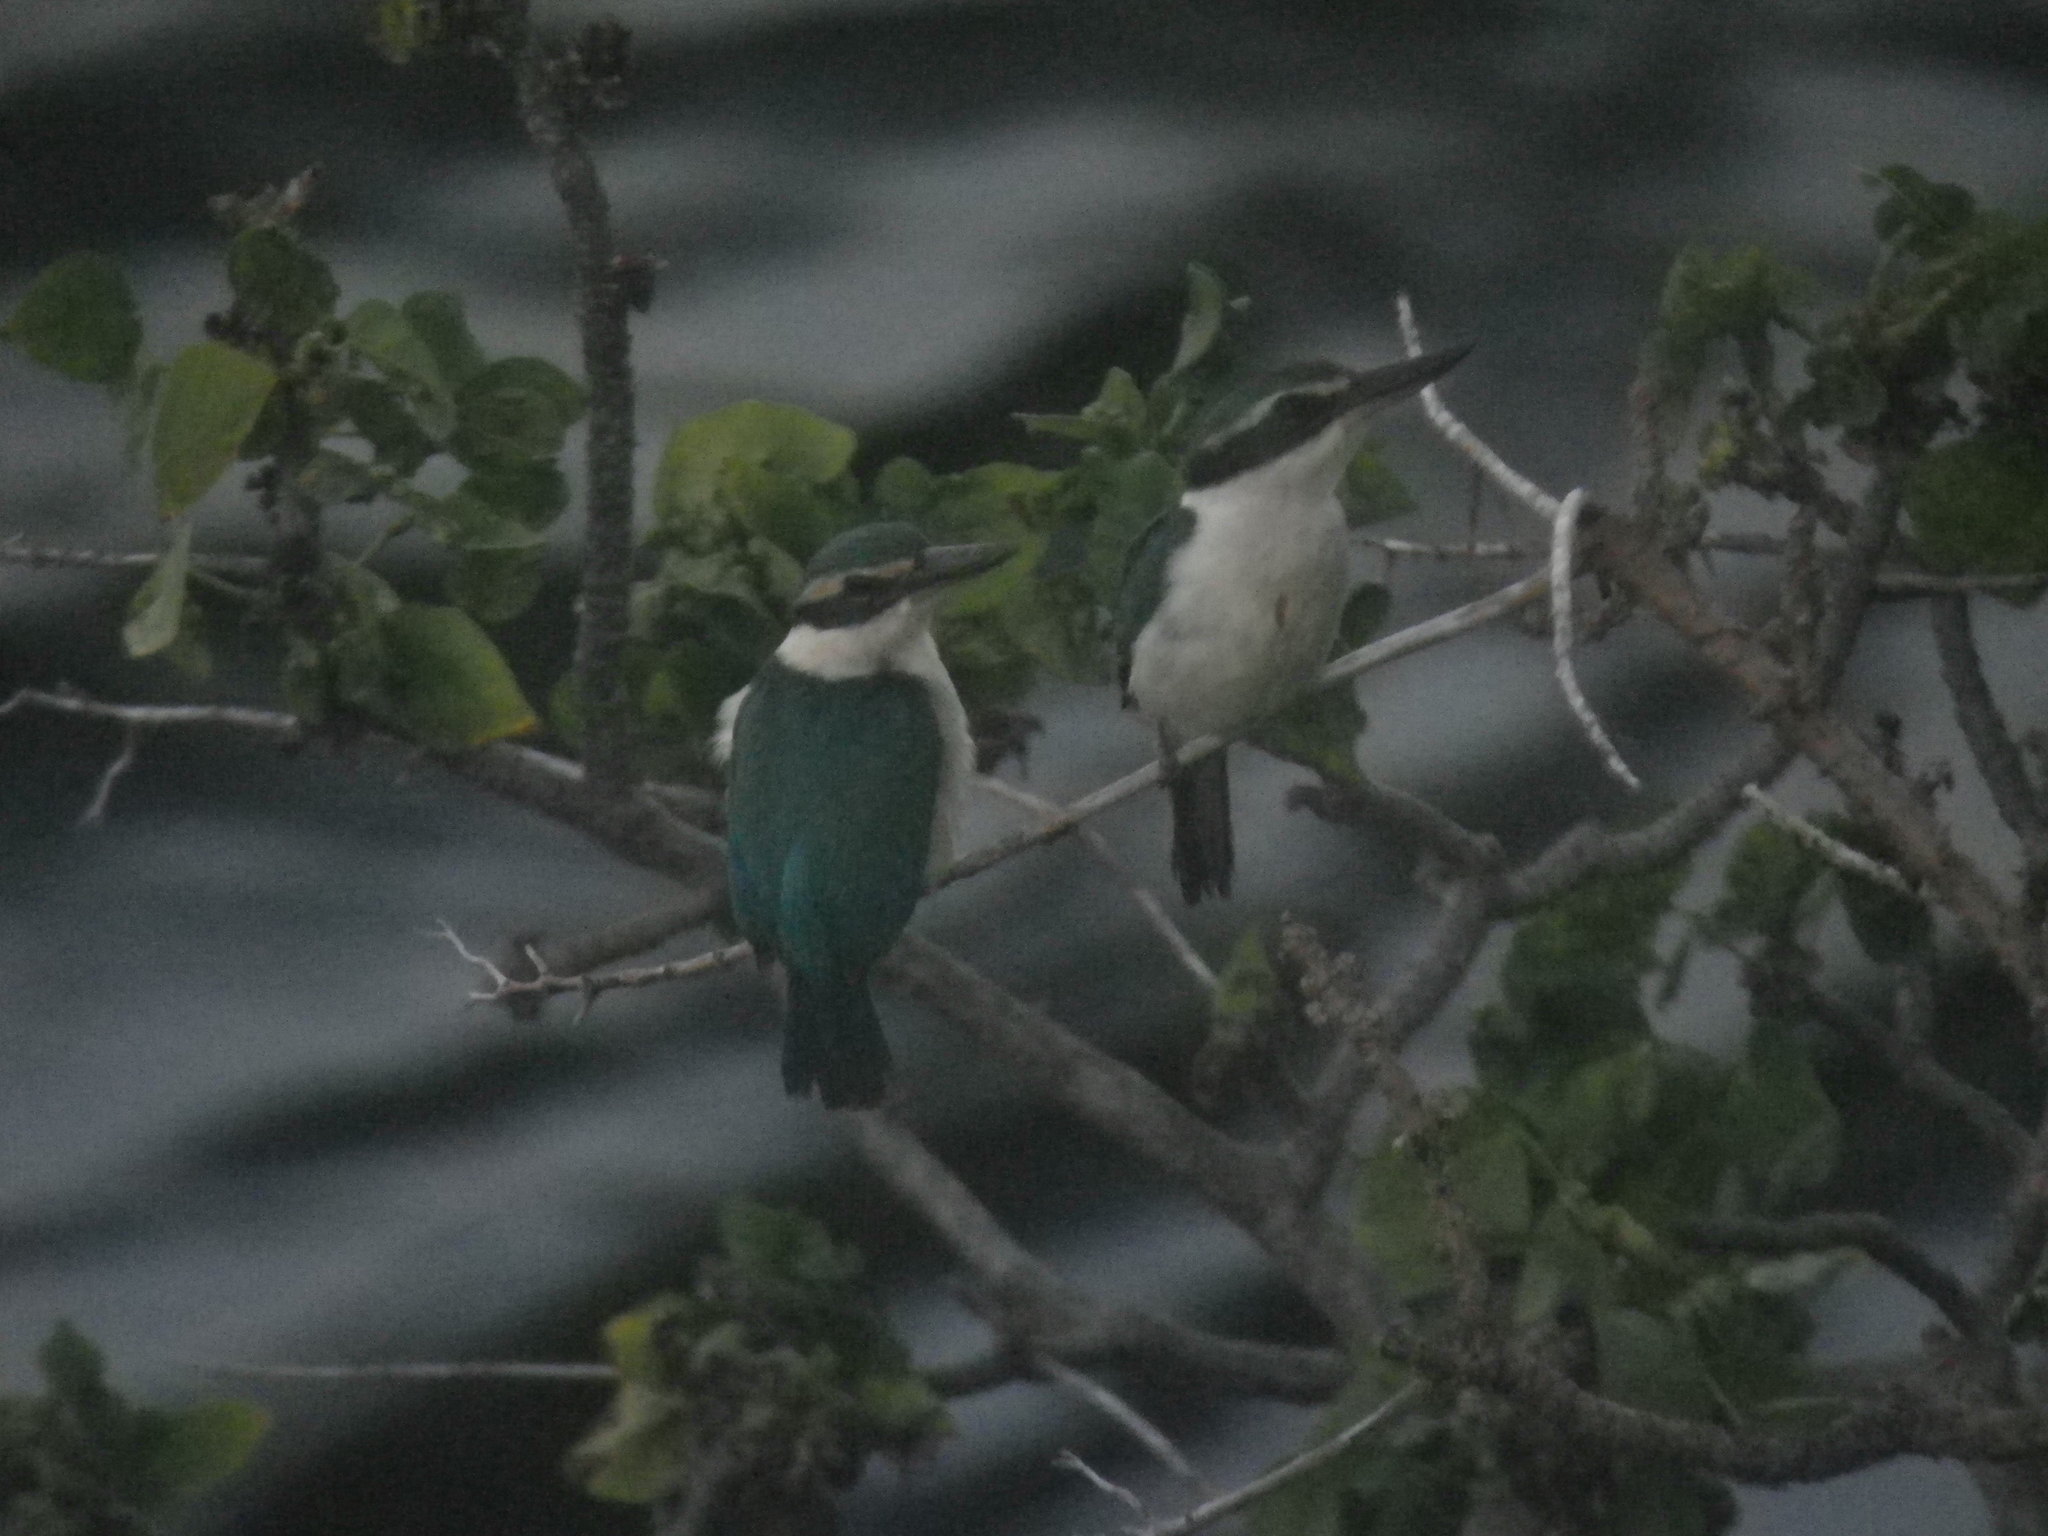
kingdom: Animalia
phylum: Chordata
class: Aves
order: Coraciiformes
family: Alcedinidae
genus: Todiramphus
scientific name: Todiramphus sacer
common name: Pacific kingfisher
